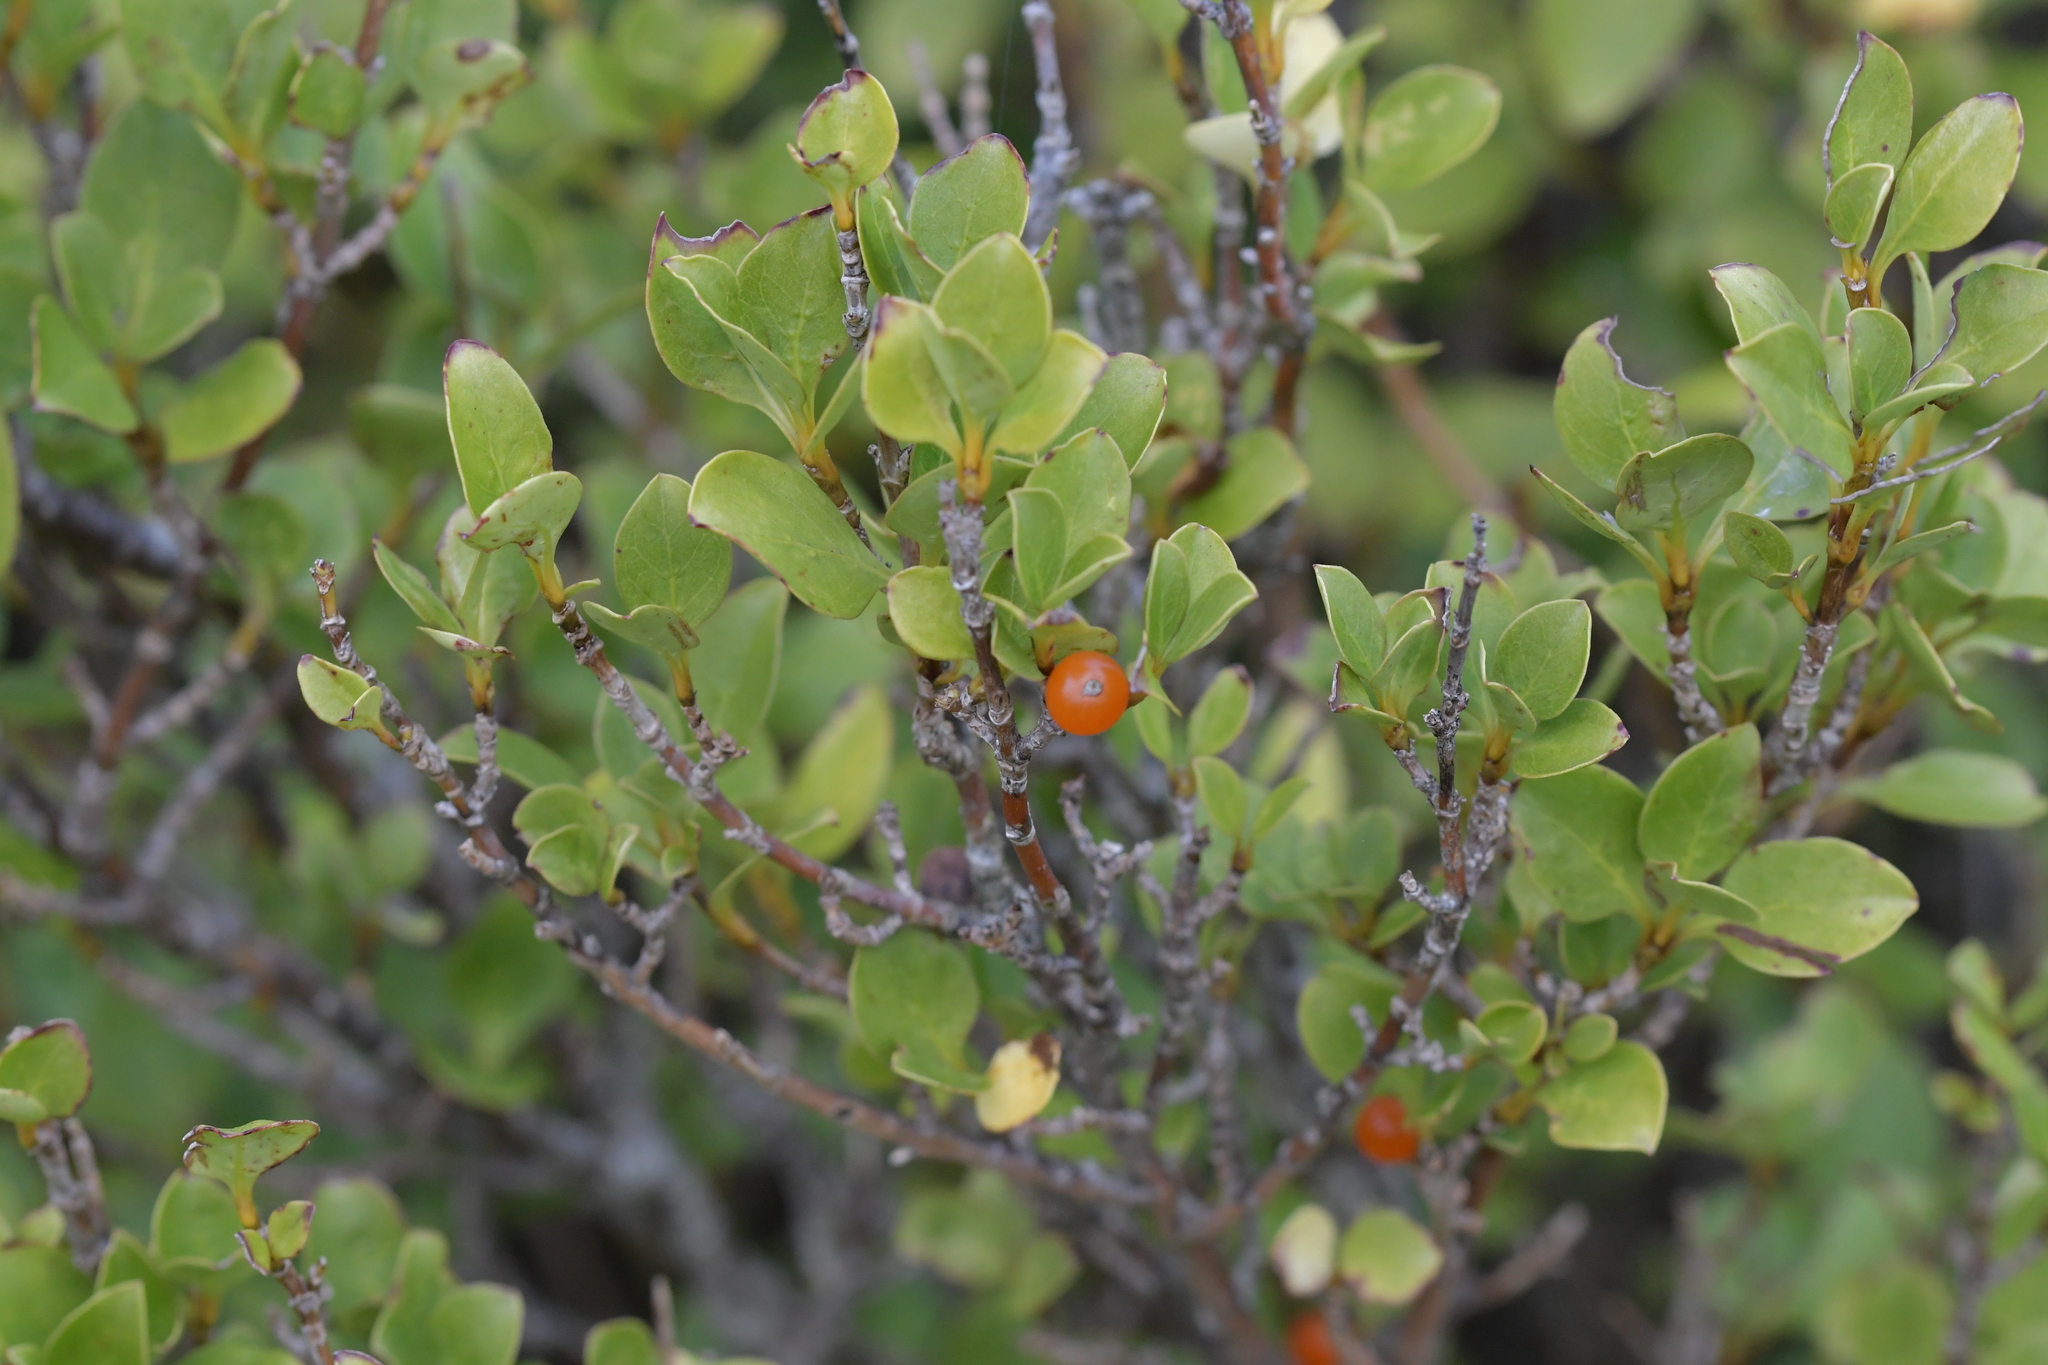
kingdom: Plantae
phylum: Tracheophyta
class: Magnoliopsida
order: Gentianales
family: Rubiaceae
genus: Coprosma
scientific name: Coprosma foetidissima
